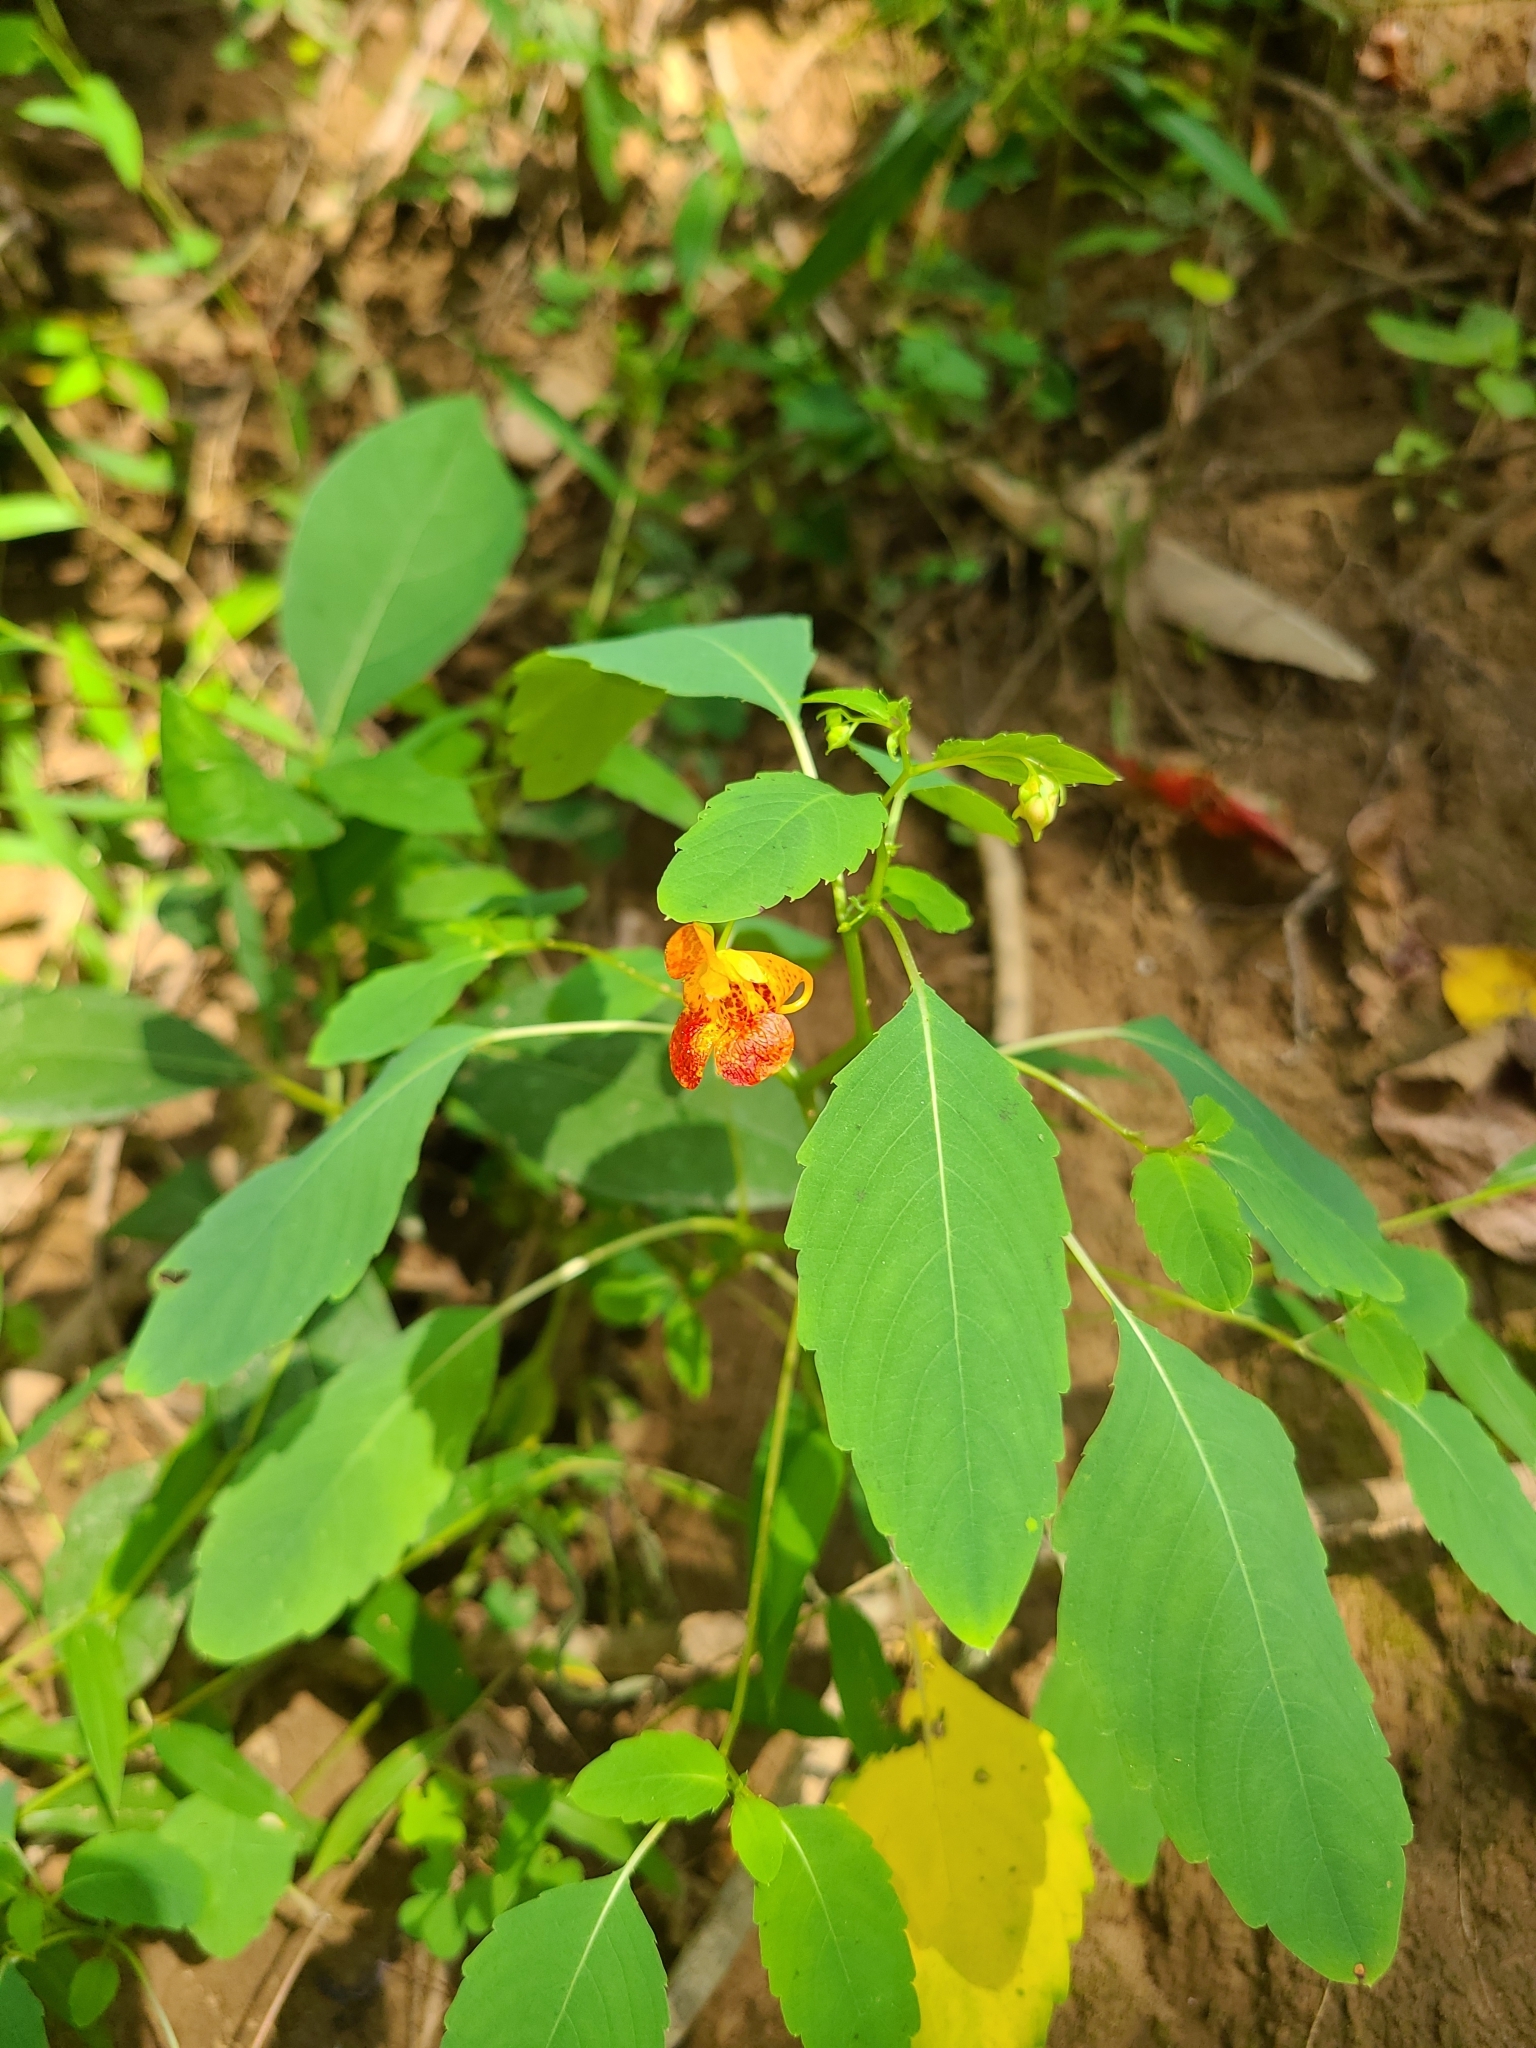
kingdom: Plantae
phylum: Tracheophyta
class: Magnoliopsida
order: Ericales
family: Balsaminaceae
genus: Impatiens
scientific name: Impatiens capensis
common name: Orange balsam
